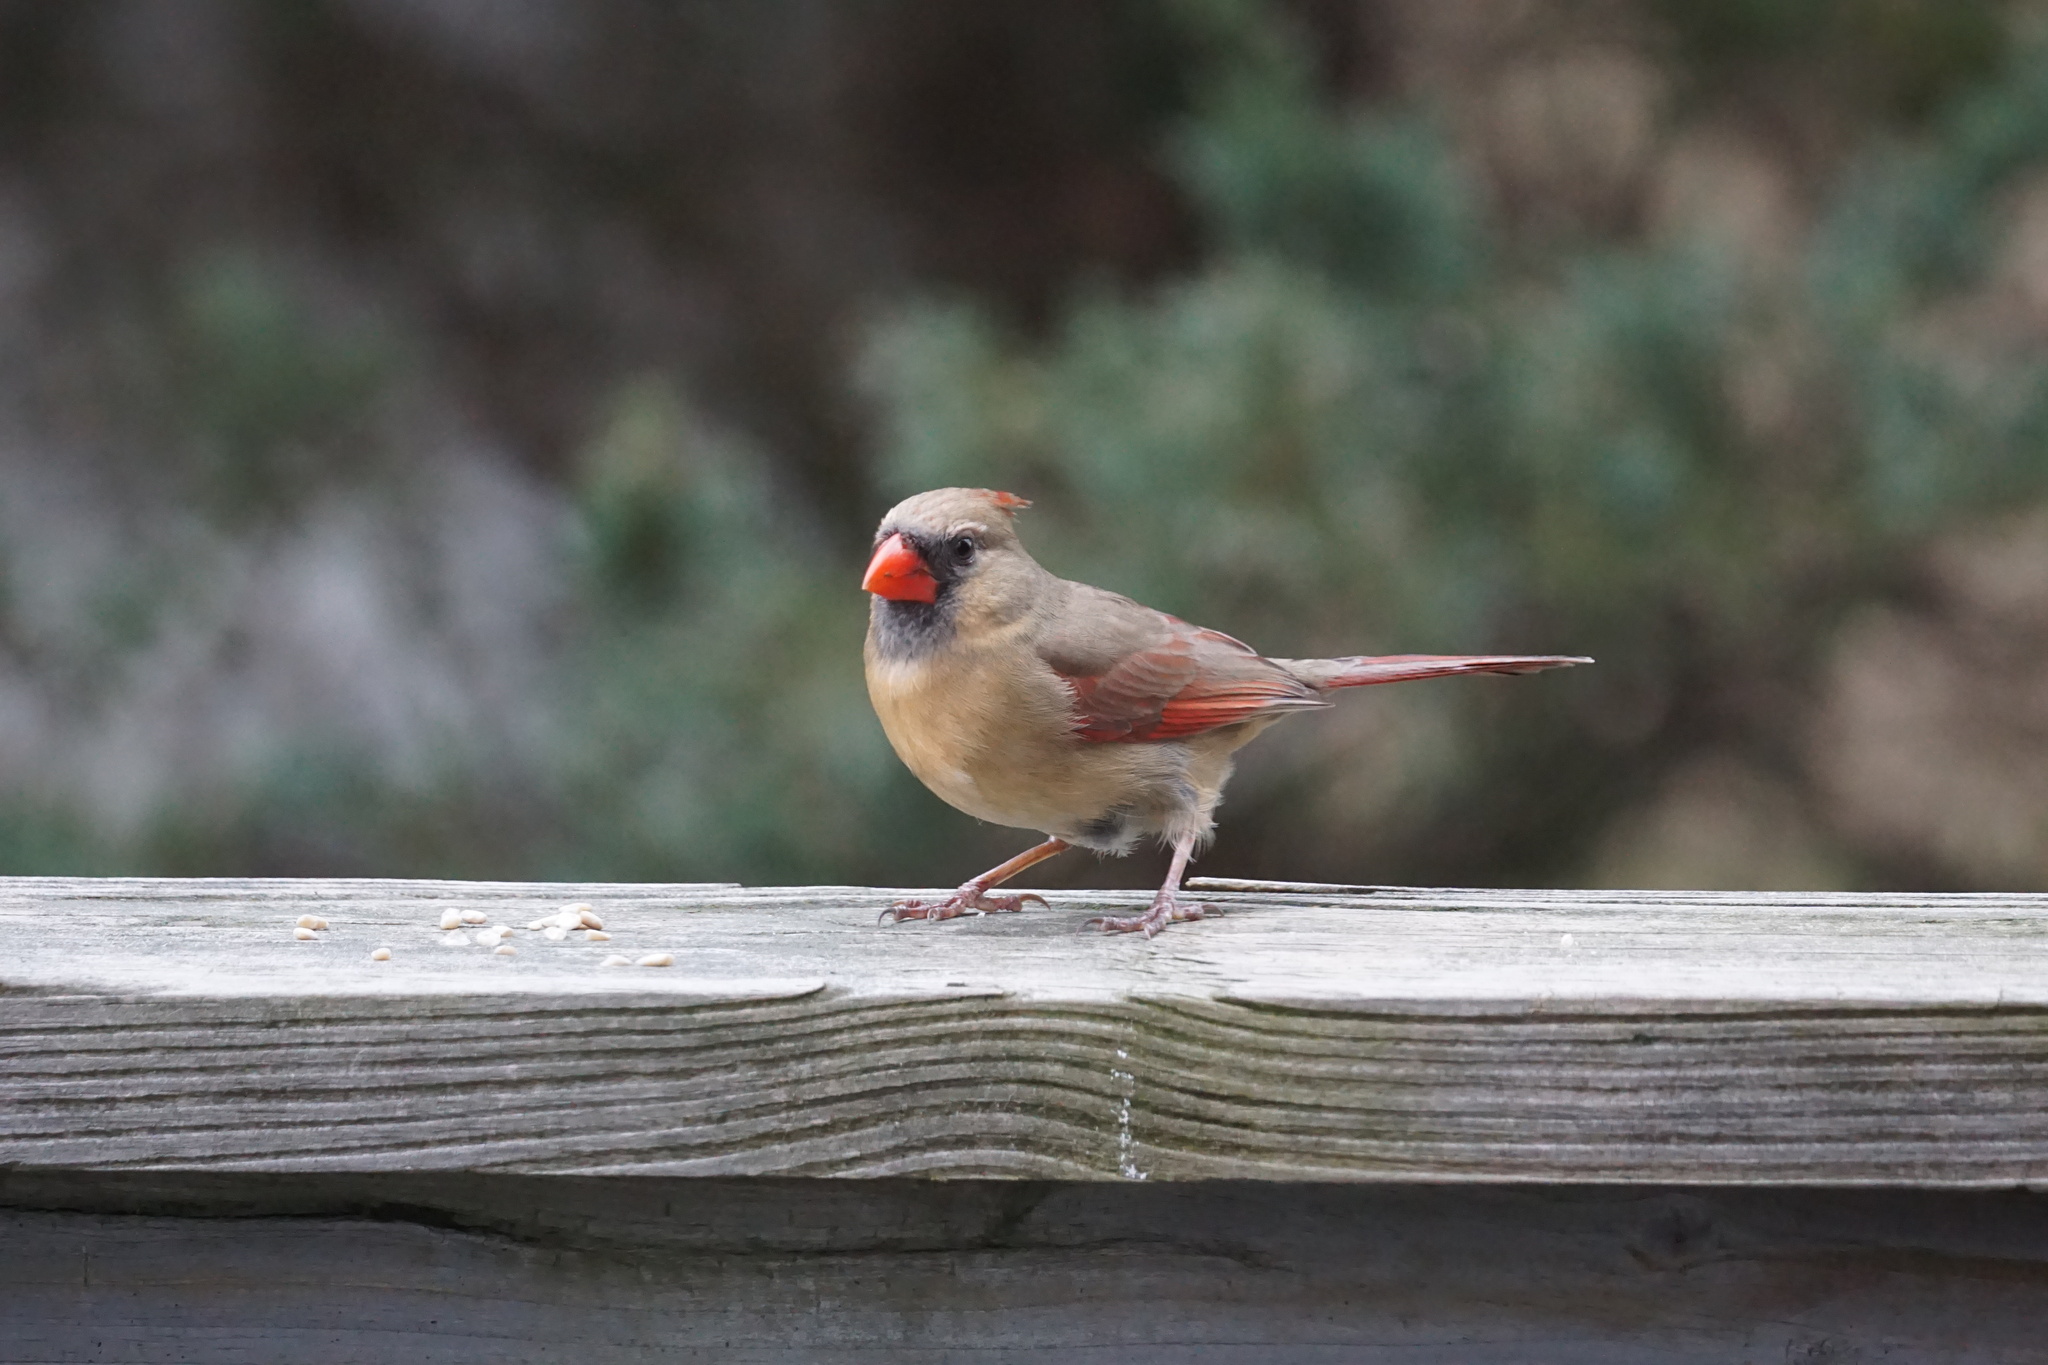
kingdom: Animalia
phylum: Chordata
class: Aves
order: Passeriformes
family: Cardinalidae
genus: Cardinalis
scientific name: Cardinalis cardinalis
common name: Northern cardinal
